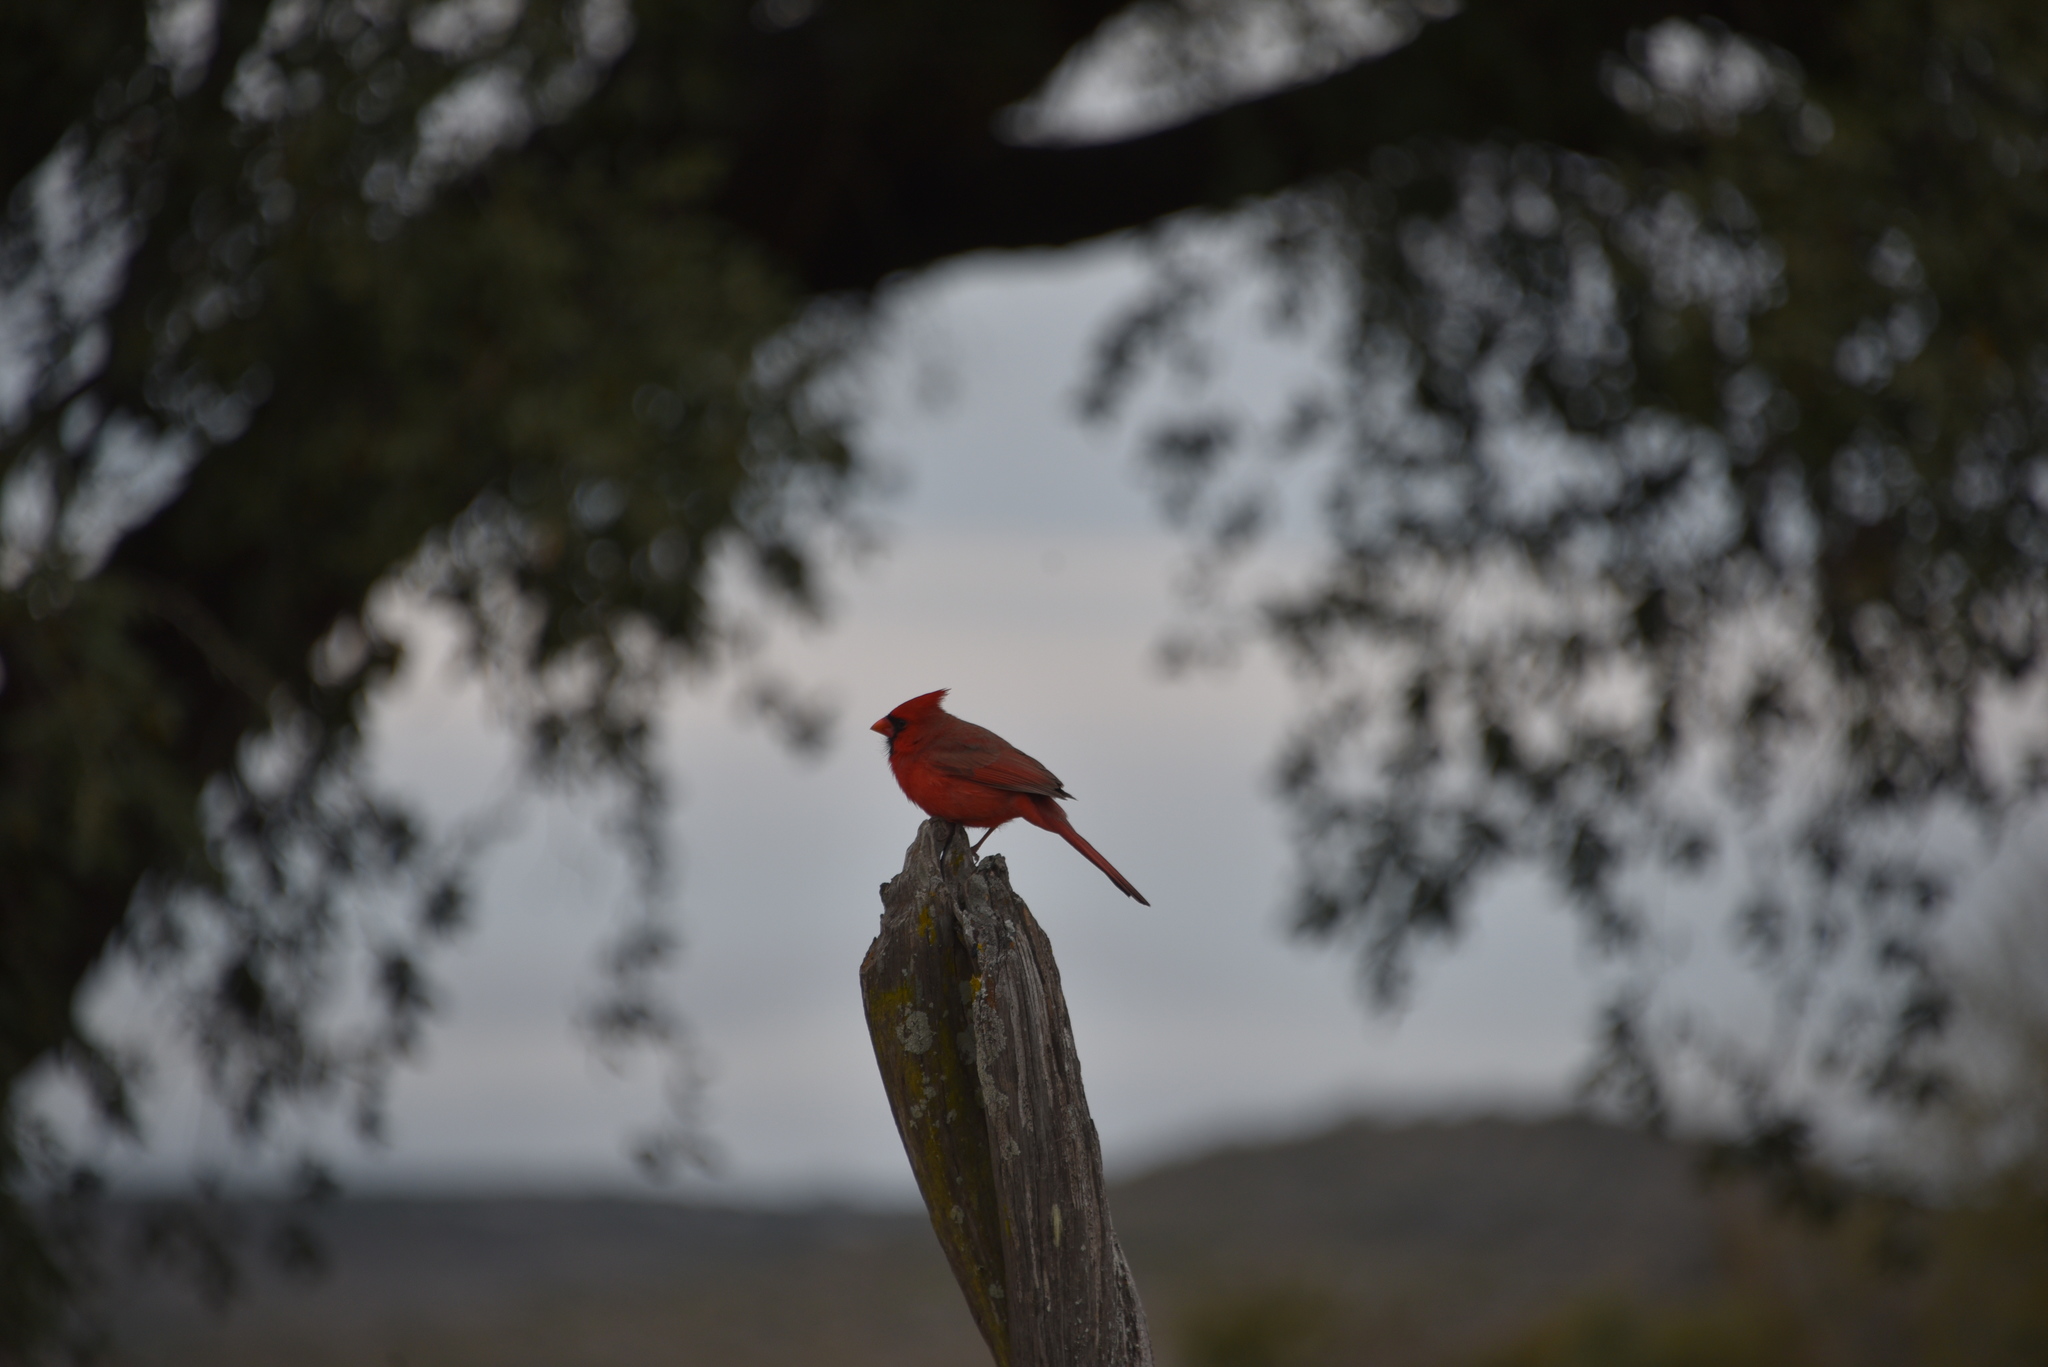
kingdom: Animalia
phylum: Chordata
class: Aves
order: Passeriformes
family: Cardinalidae
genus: Cardinalis
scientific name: Cardinalis cardinalis
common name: Northern cardinal
